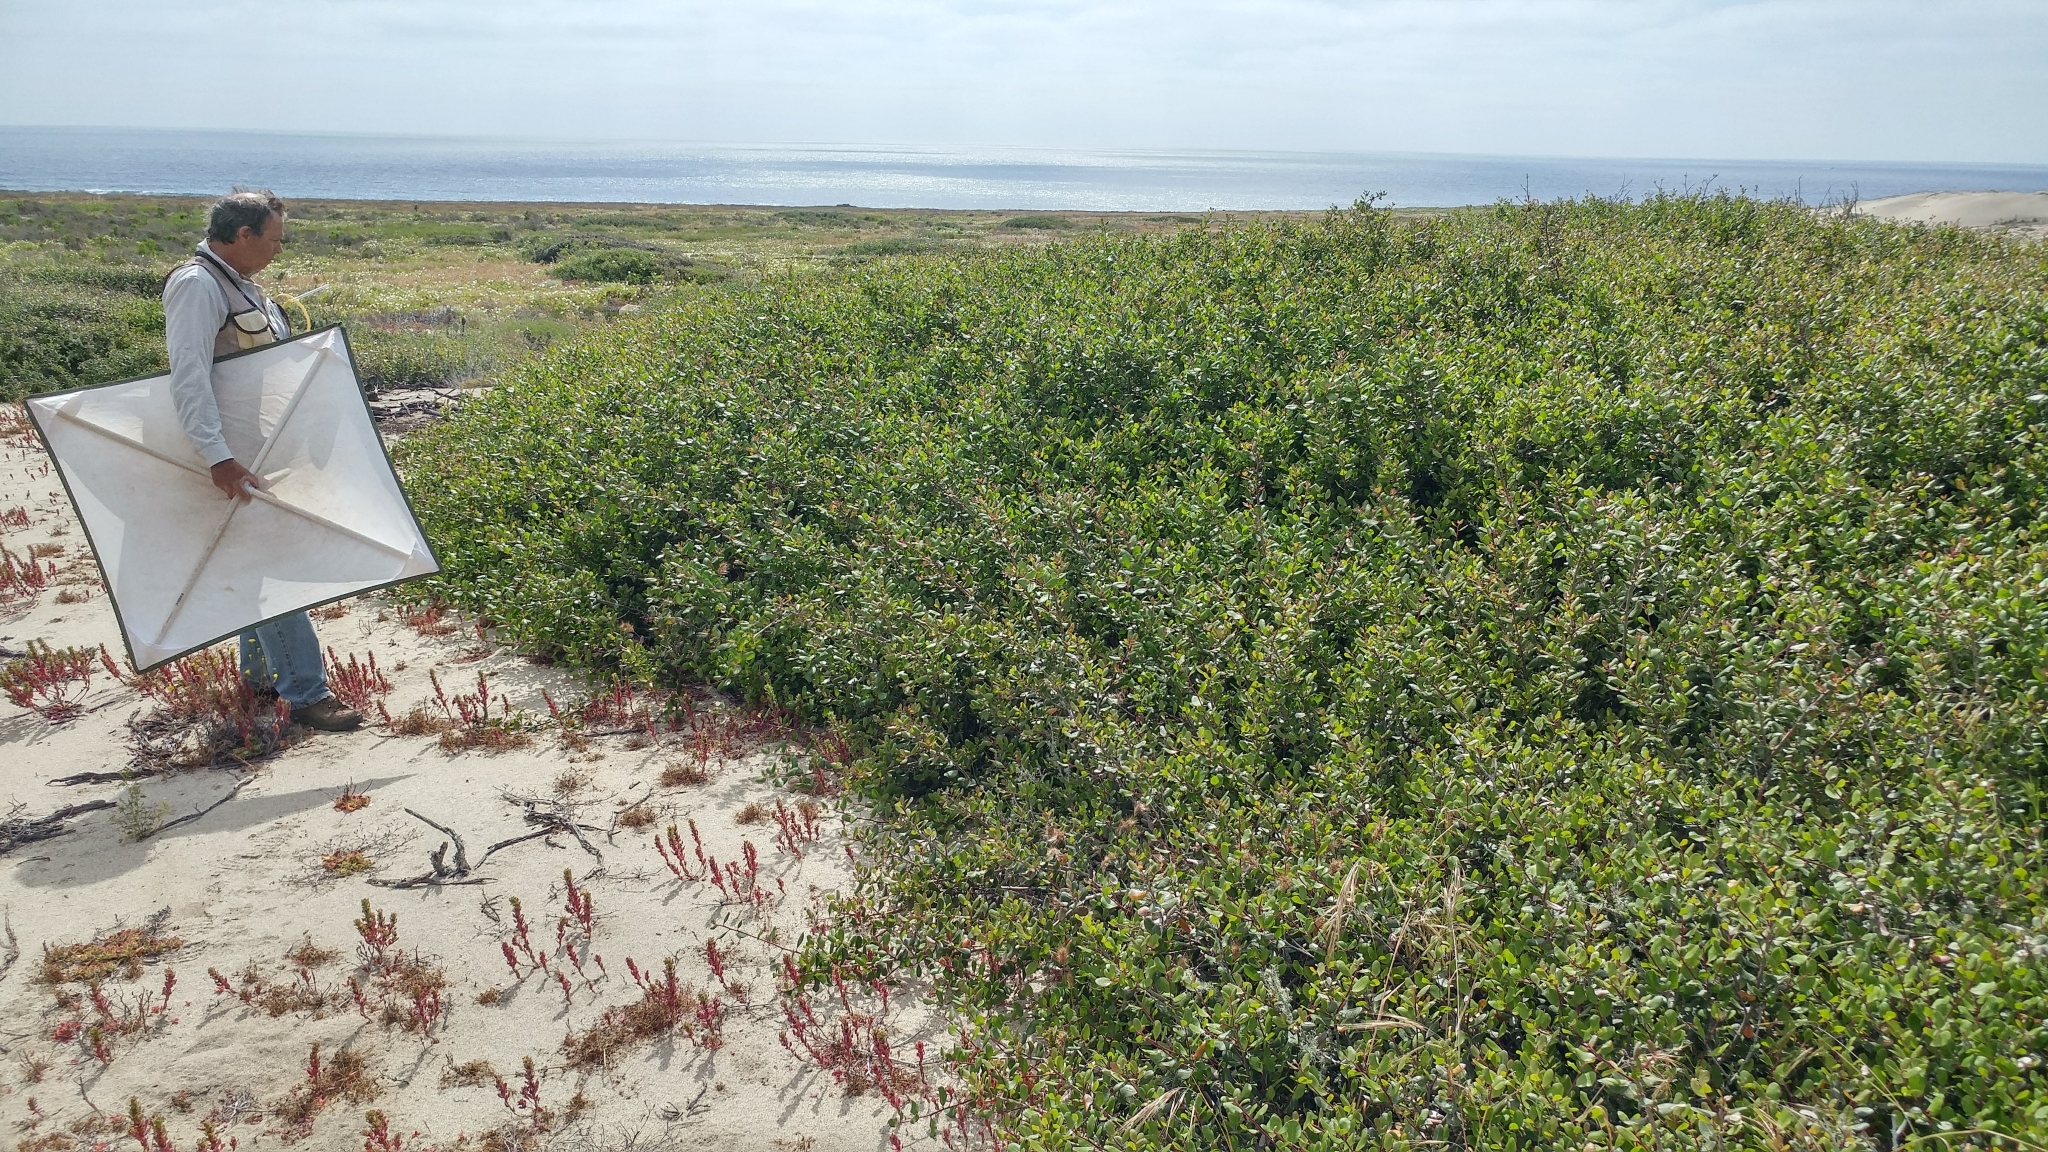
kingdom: Plantae
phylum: Tracheophyta
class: Magnoliopsida
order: Sapindales
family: Anacardiaceae
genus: Rhus
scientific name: Rhus integrifolia
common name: Lemonade sumac
